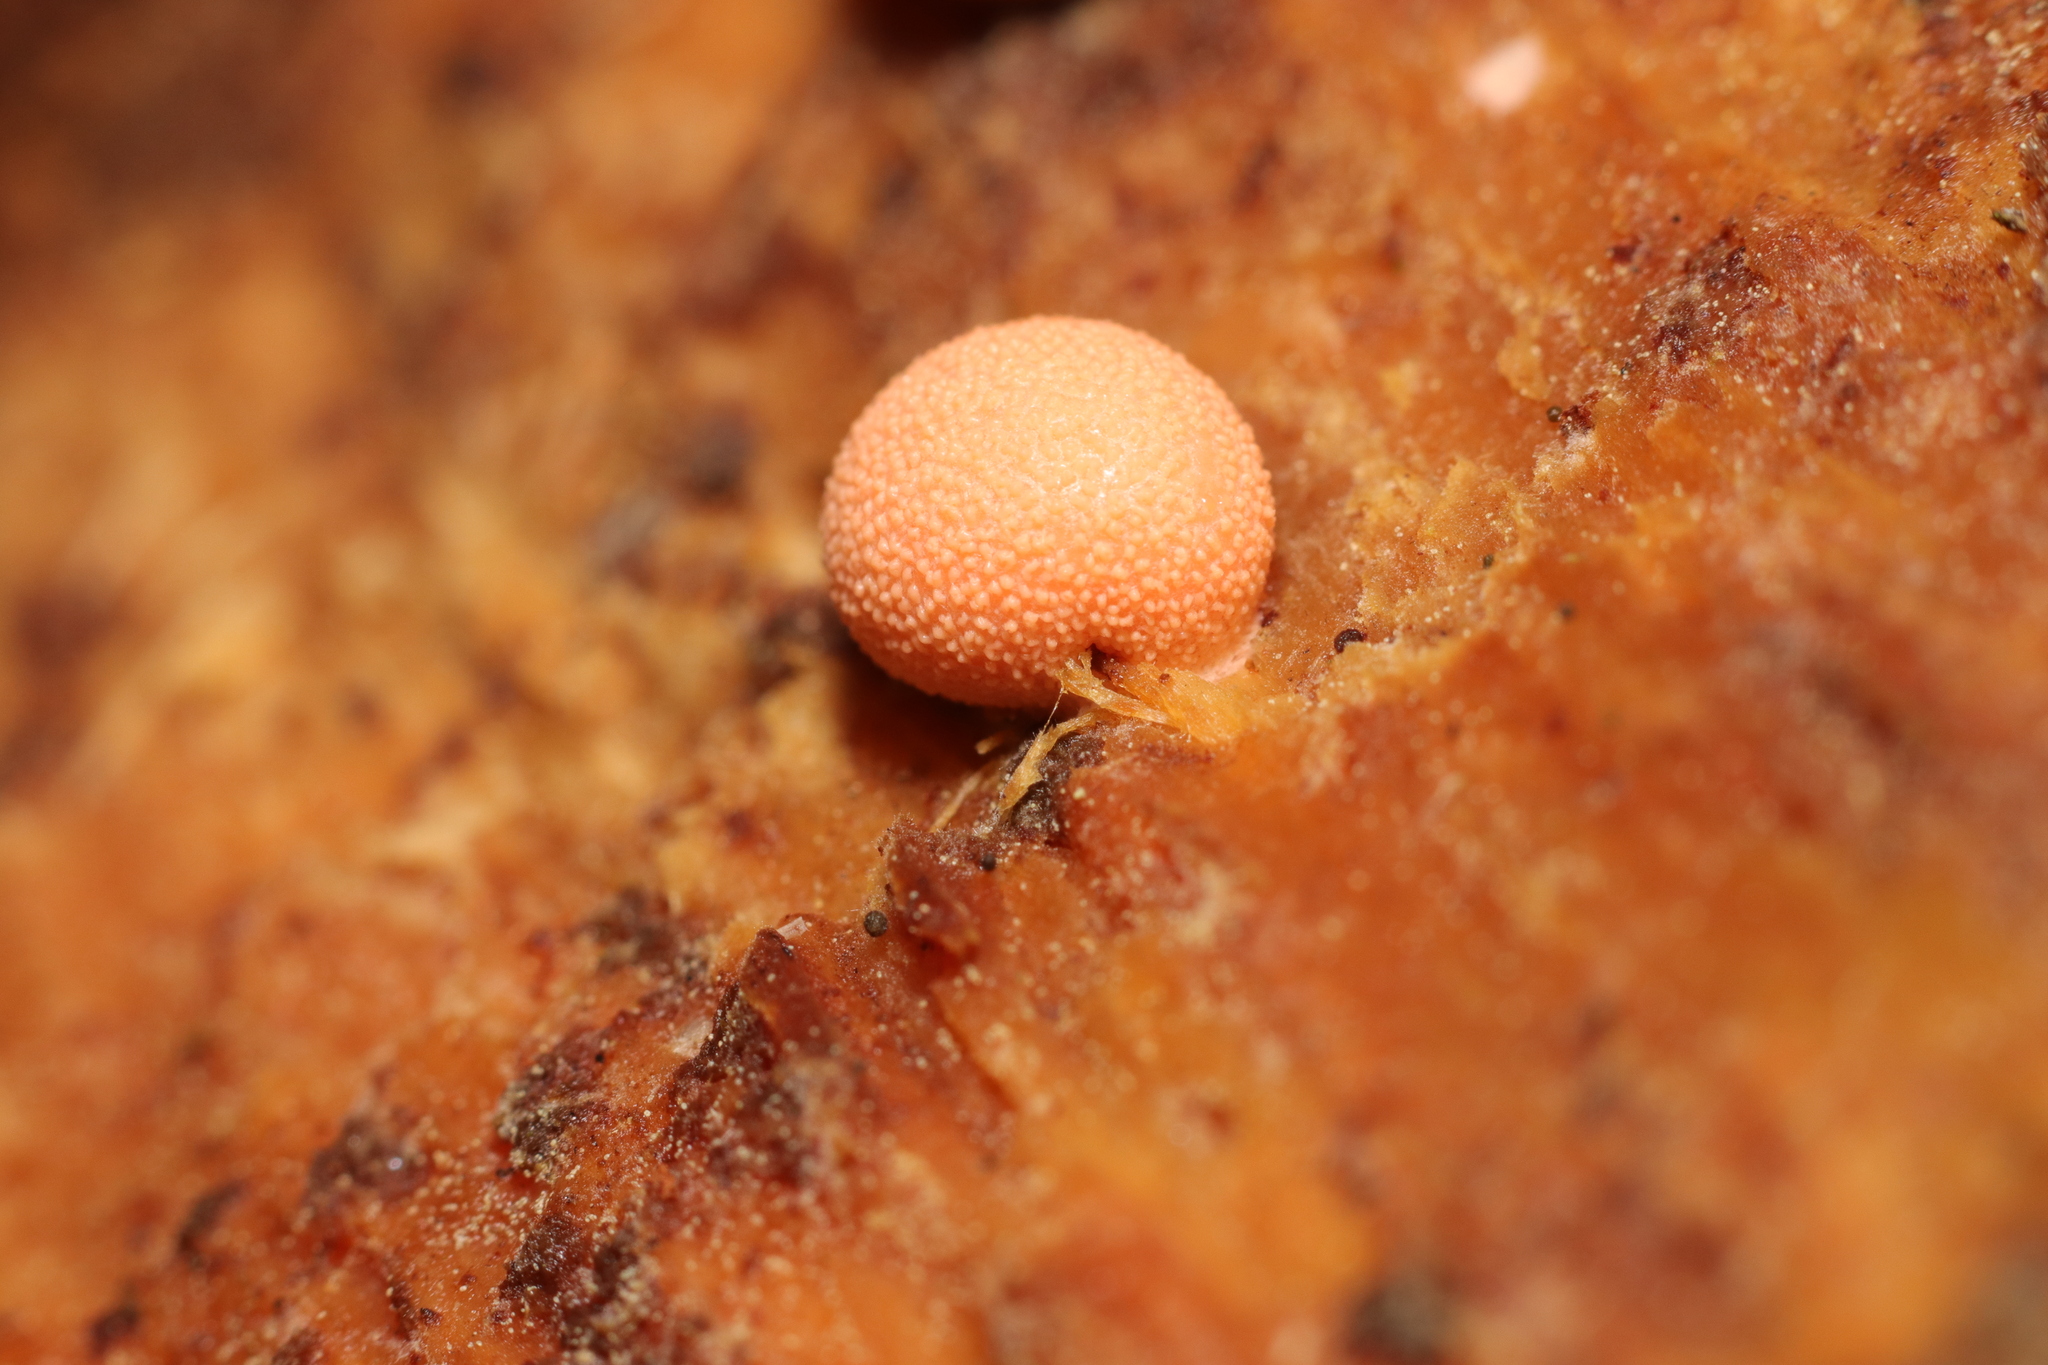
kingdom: Protozoa
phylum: Mycetozoa
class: Myxomycetes
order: Cribrariales
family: Tubiferaceae
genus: Lycogala
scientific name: Lycogala epidendrum
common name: Wolf's milk
